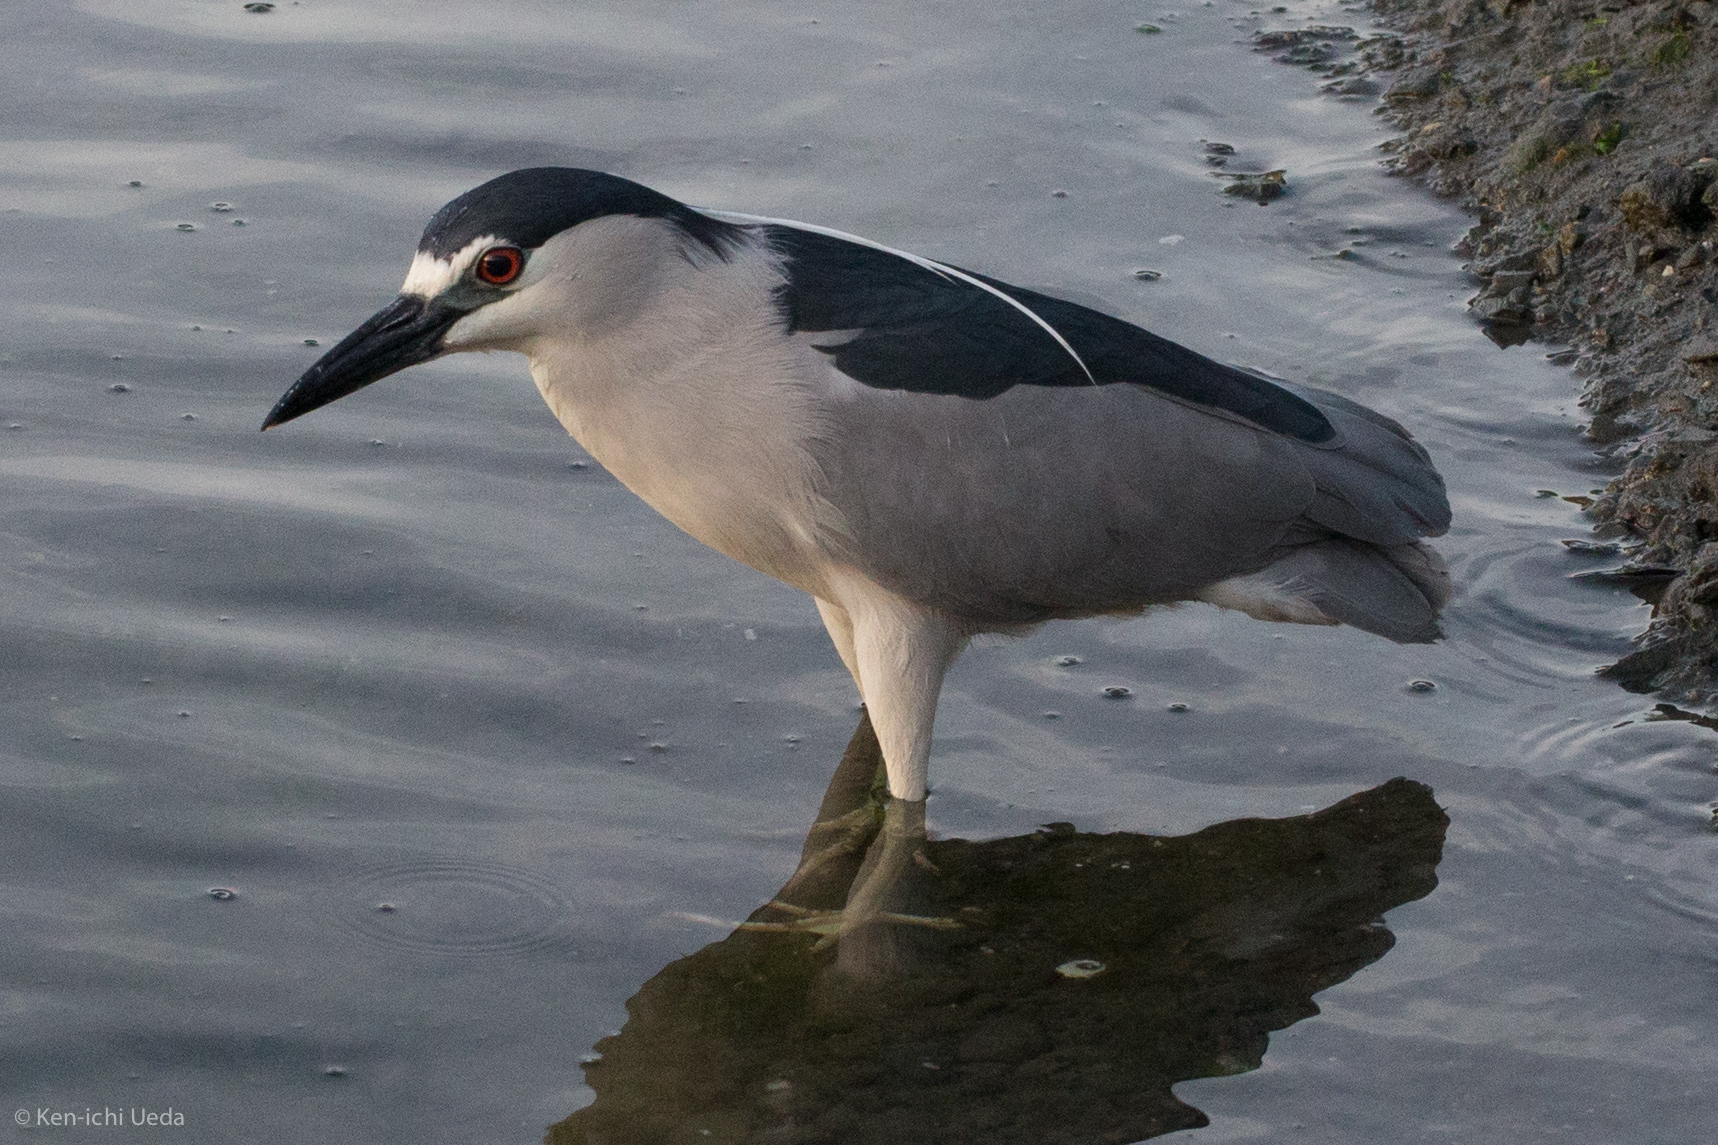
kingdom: Animalia
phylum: Chordata
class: Aves
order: Pelecaniformes
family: Ardeidae
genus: Nycticorax
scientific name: Nycticorax nycticorax
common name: Black-crowned night heron
